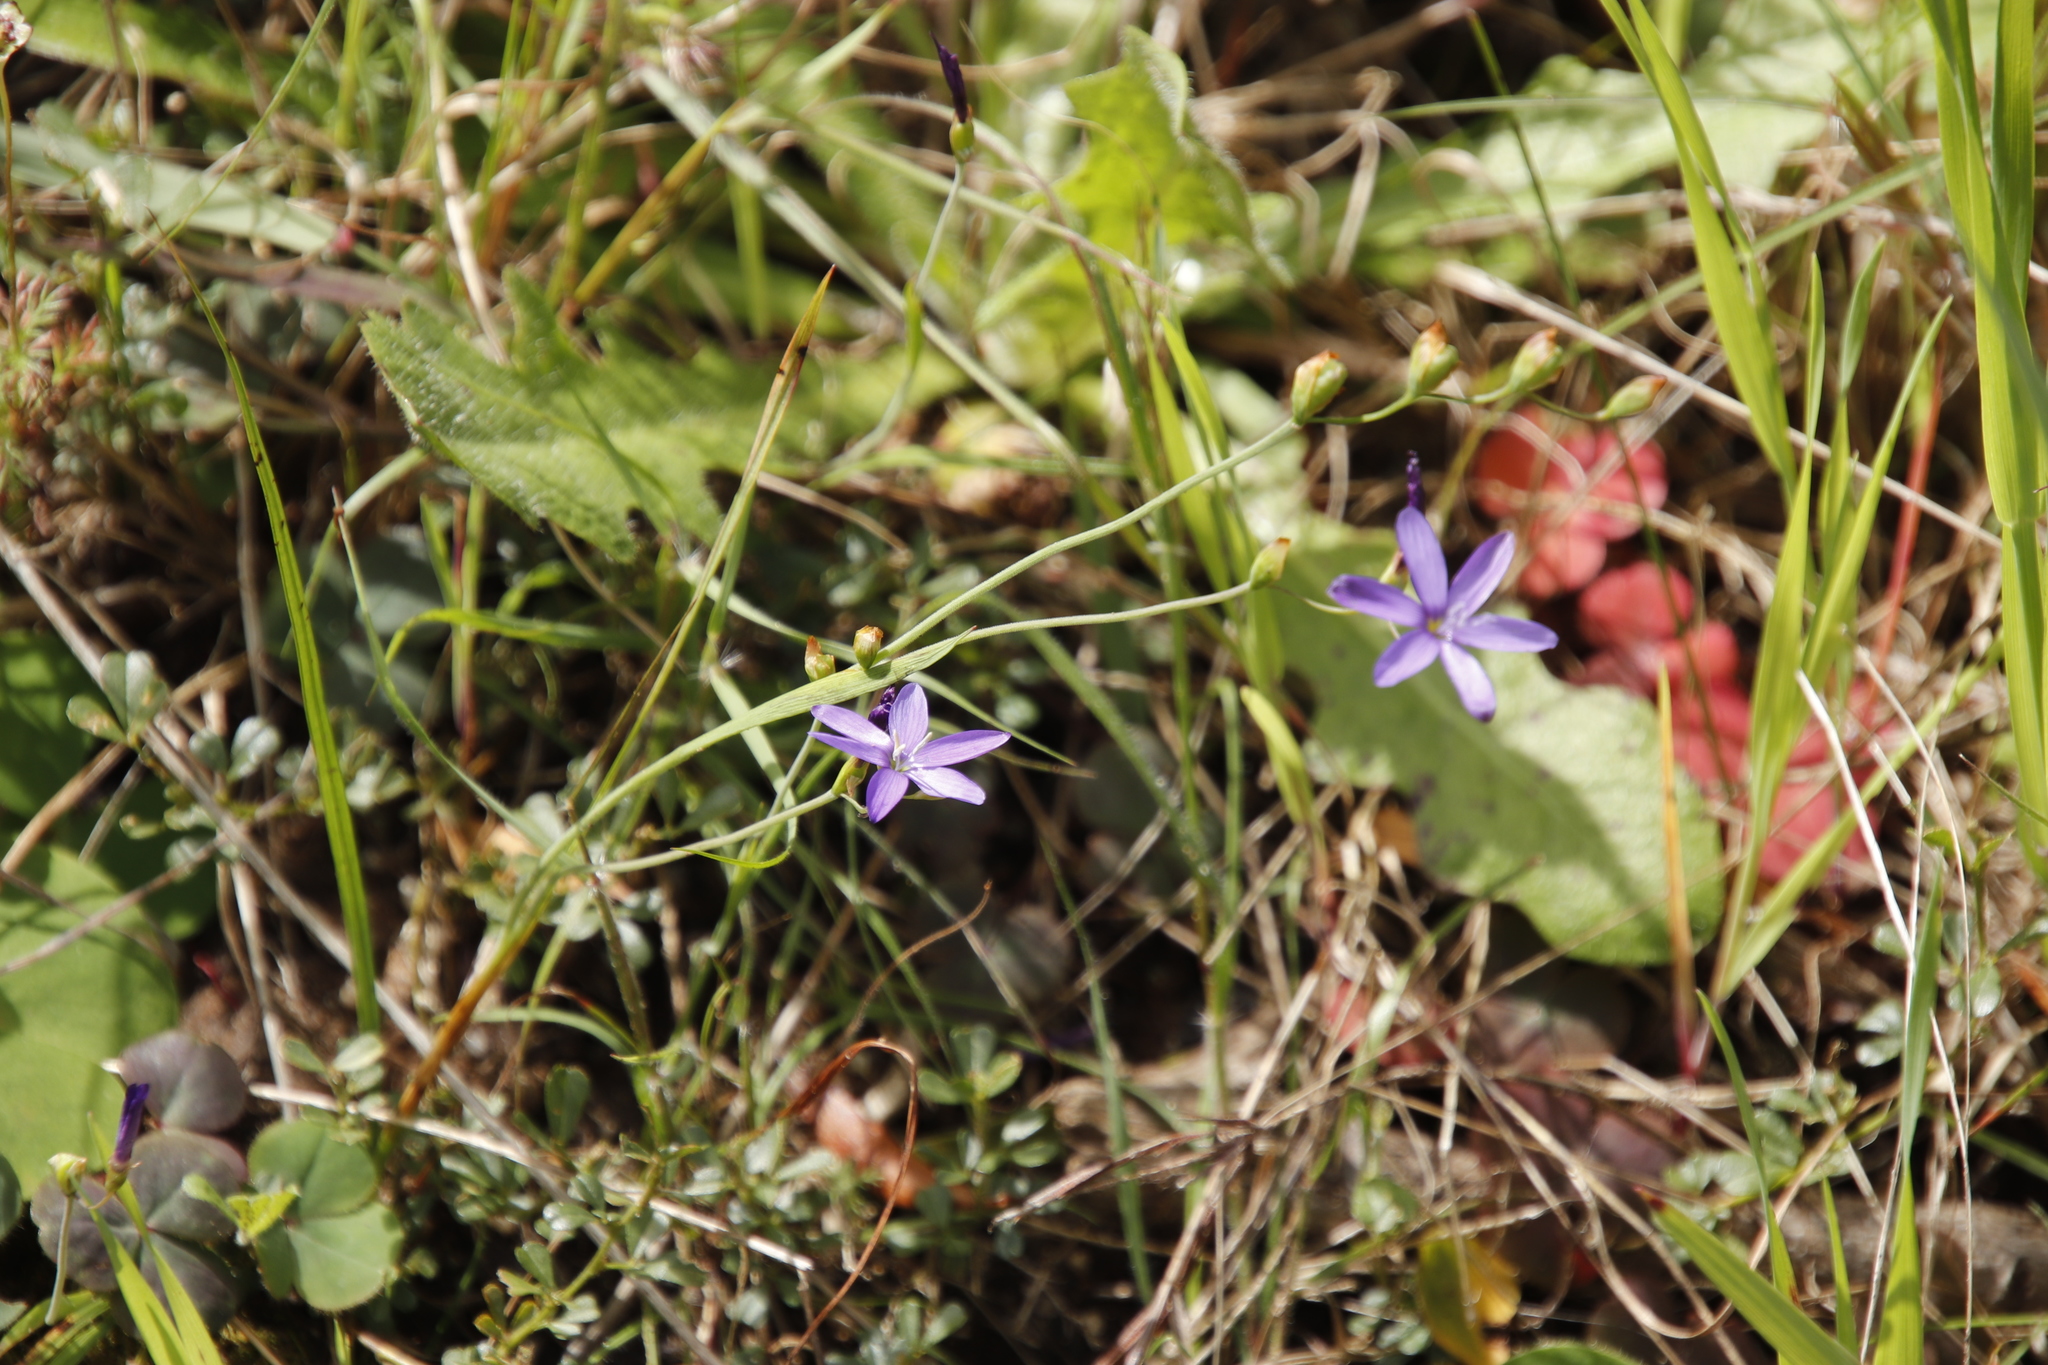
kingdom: Plantae
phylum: Tracheophyta
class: Liliopsida
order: Asparagales
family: Iridaceae
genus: Geissorhiza
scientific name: Geissorhiza aspera
